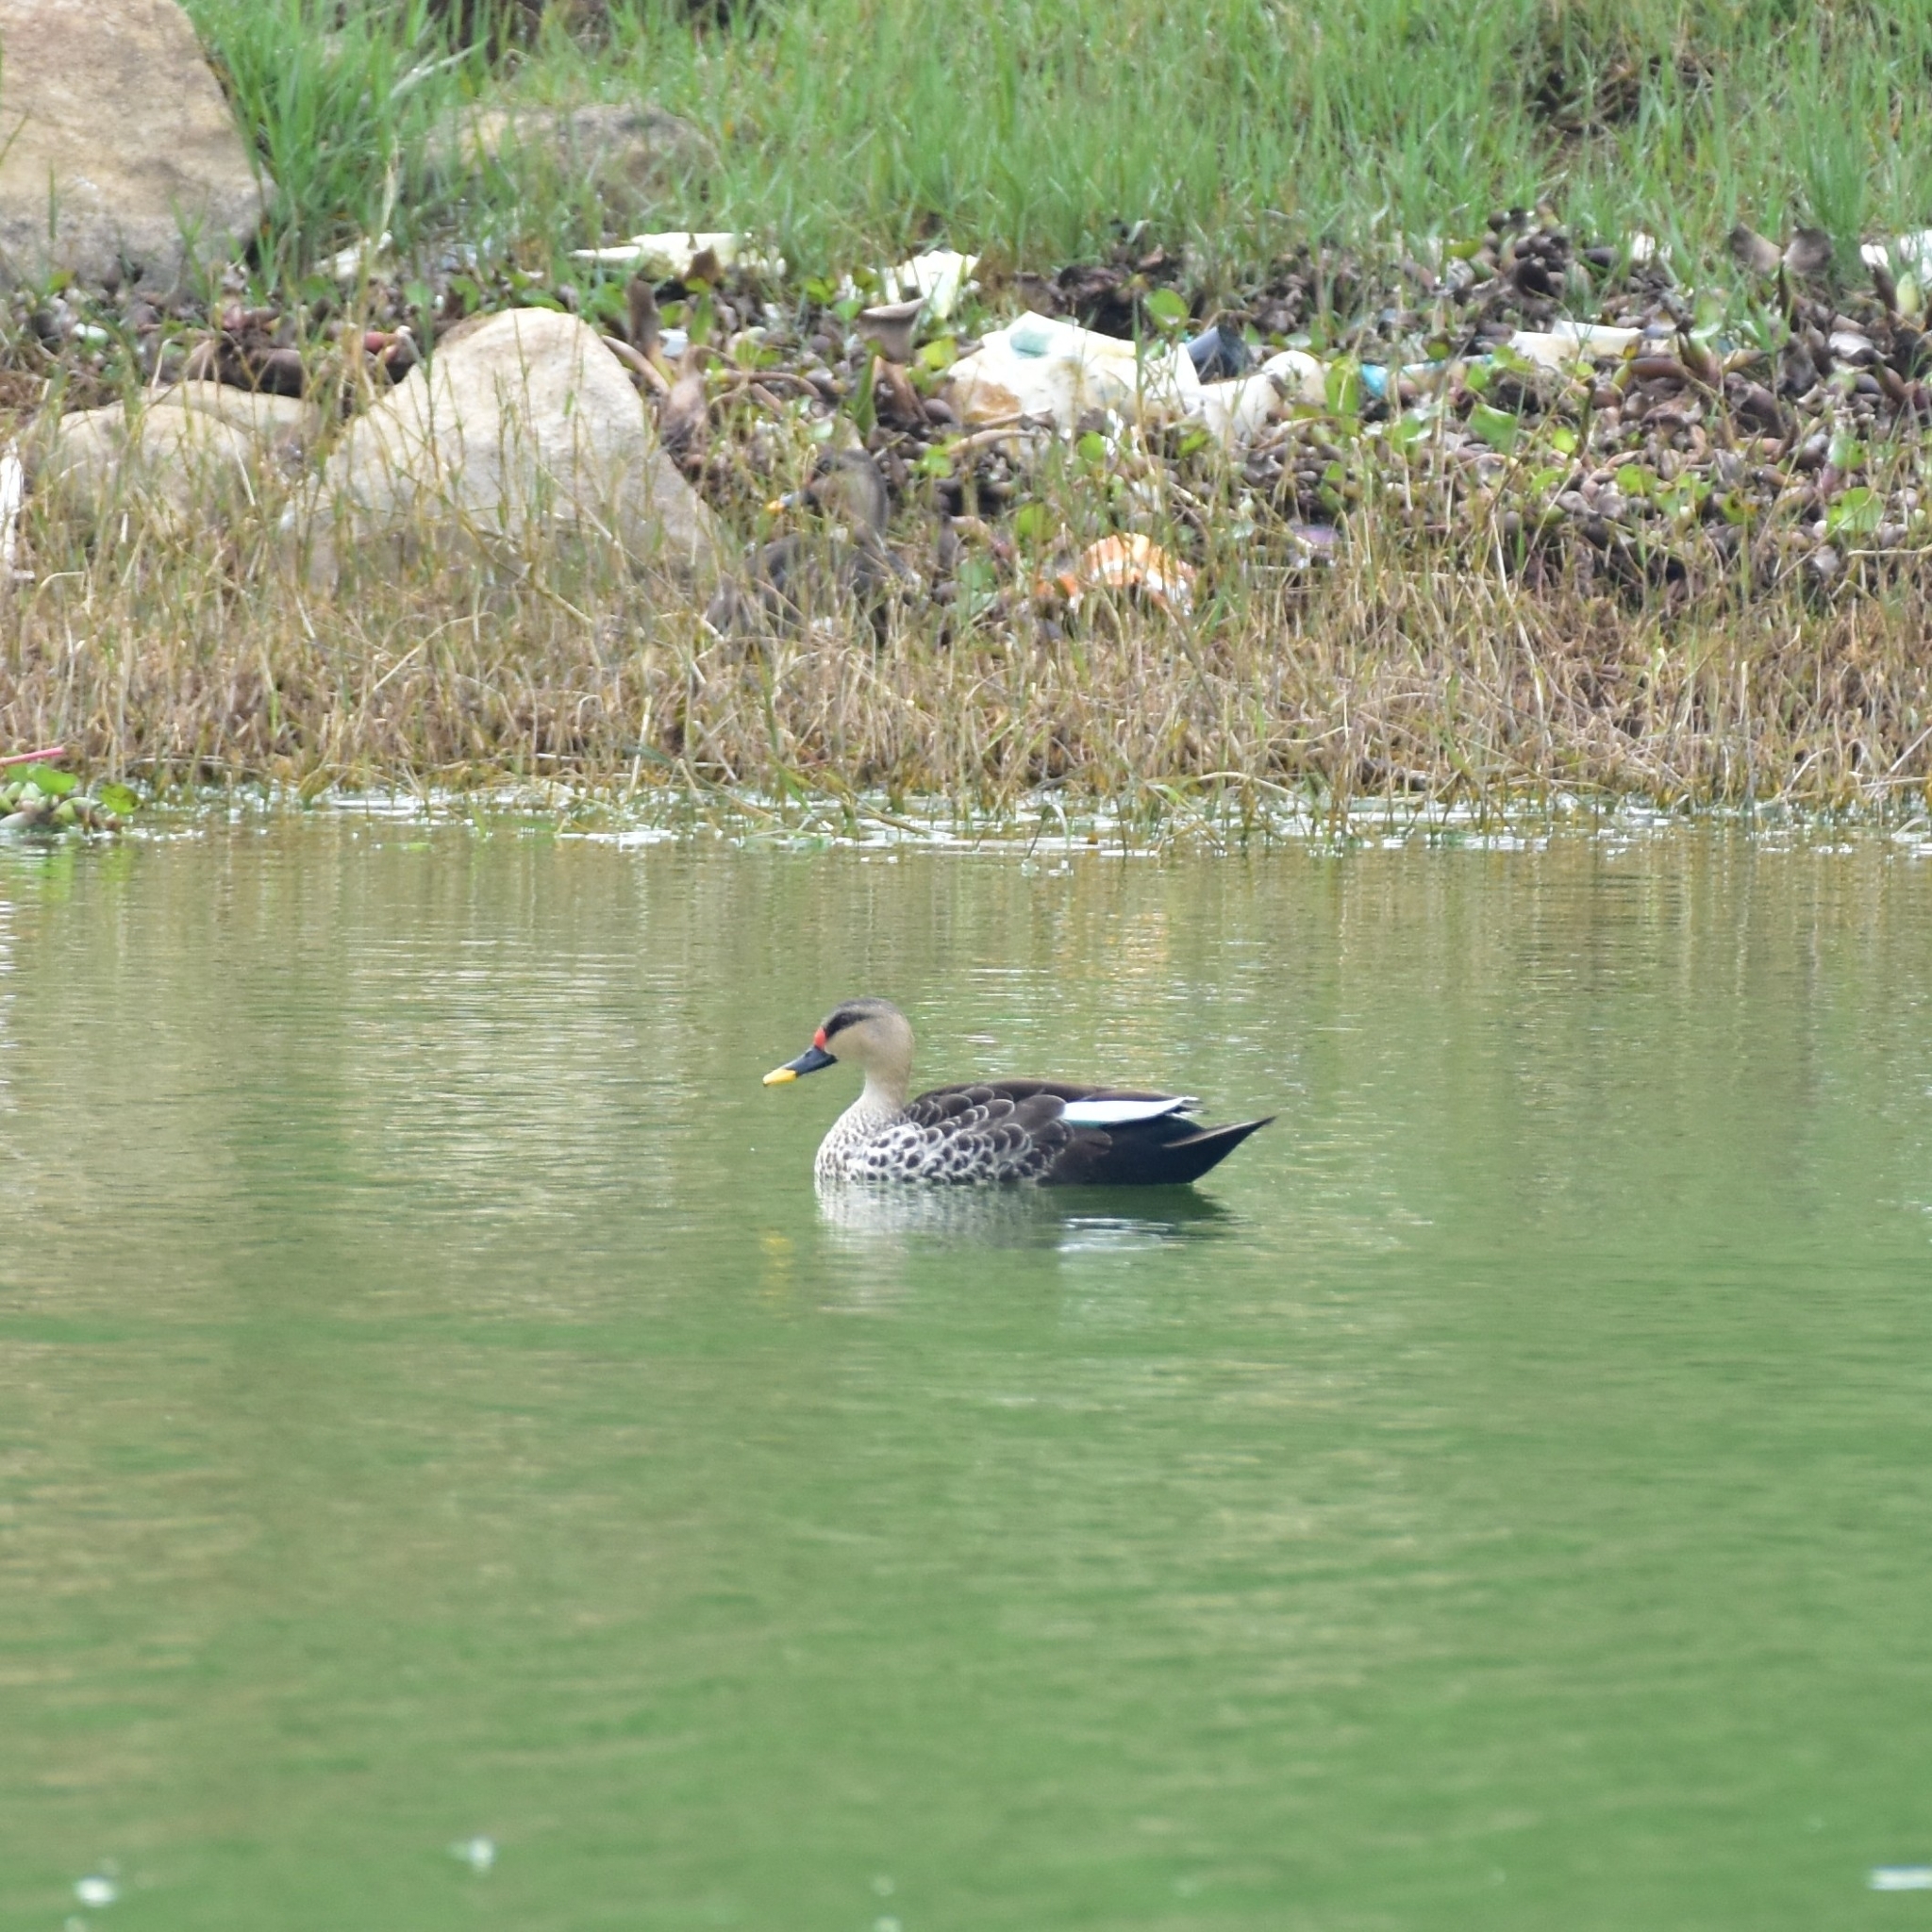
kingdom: Animalia
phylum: Chordata
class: Aves
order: Anseriformes
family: Anatidae
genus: Anas
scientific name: Anas poecilorhyncha
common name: Indian spot-billed duck
